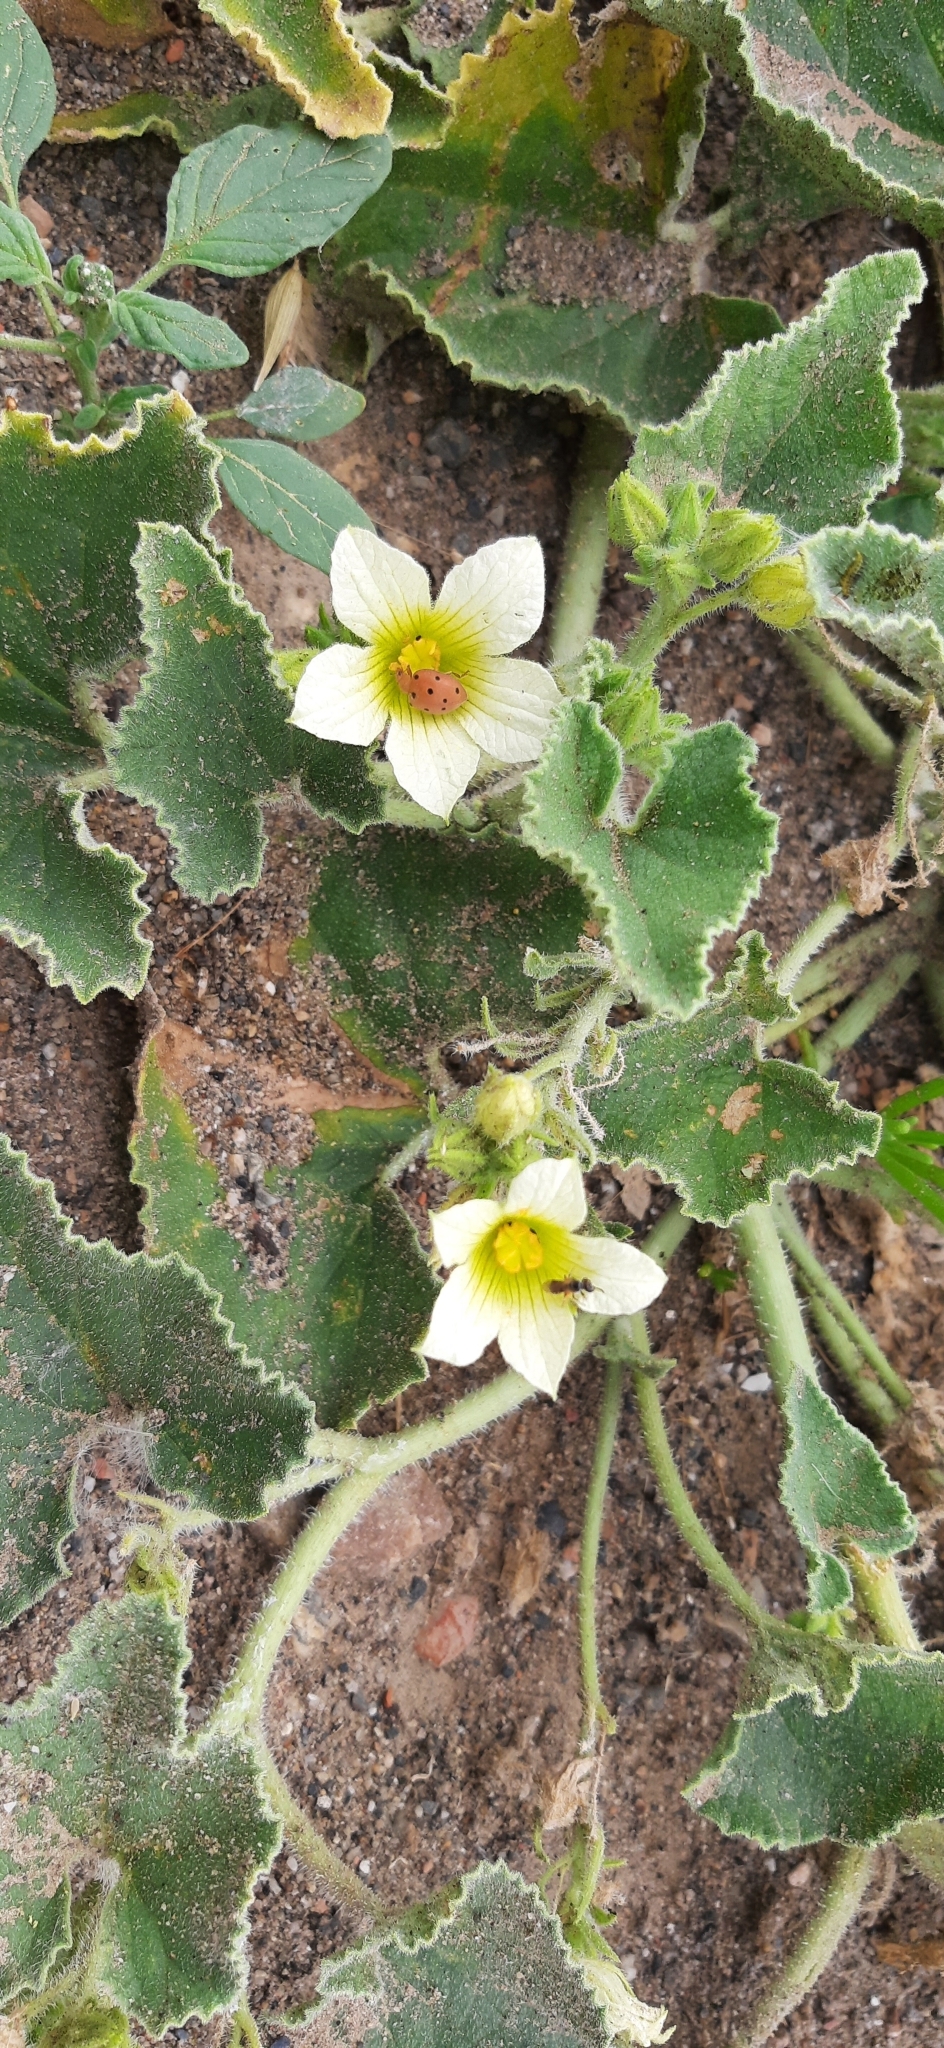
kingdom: Plantae
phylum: Tracheophyta
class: Magnoliopsida
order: Cucurbitales
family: Cucurbitaceae
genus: Ecballium
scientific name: Ecballium elaterium
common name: Squirting cucumber
